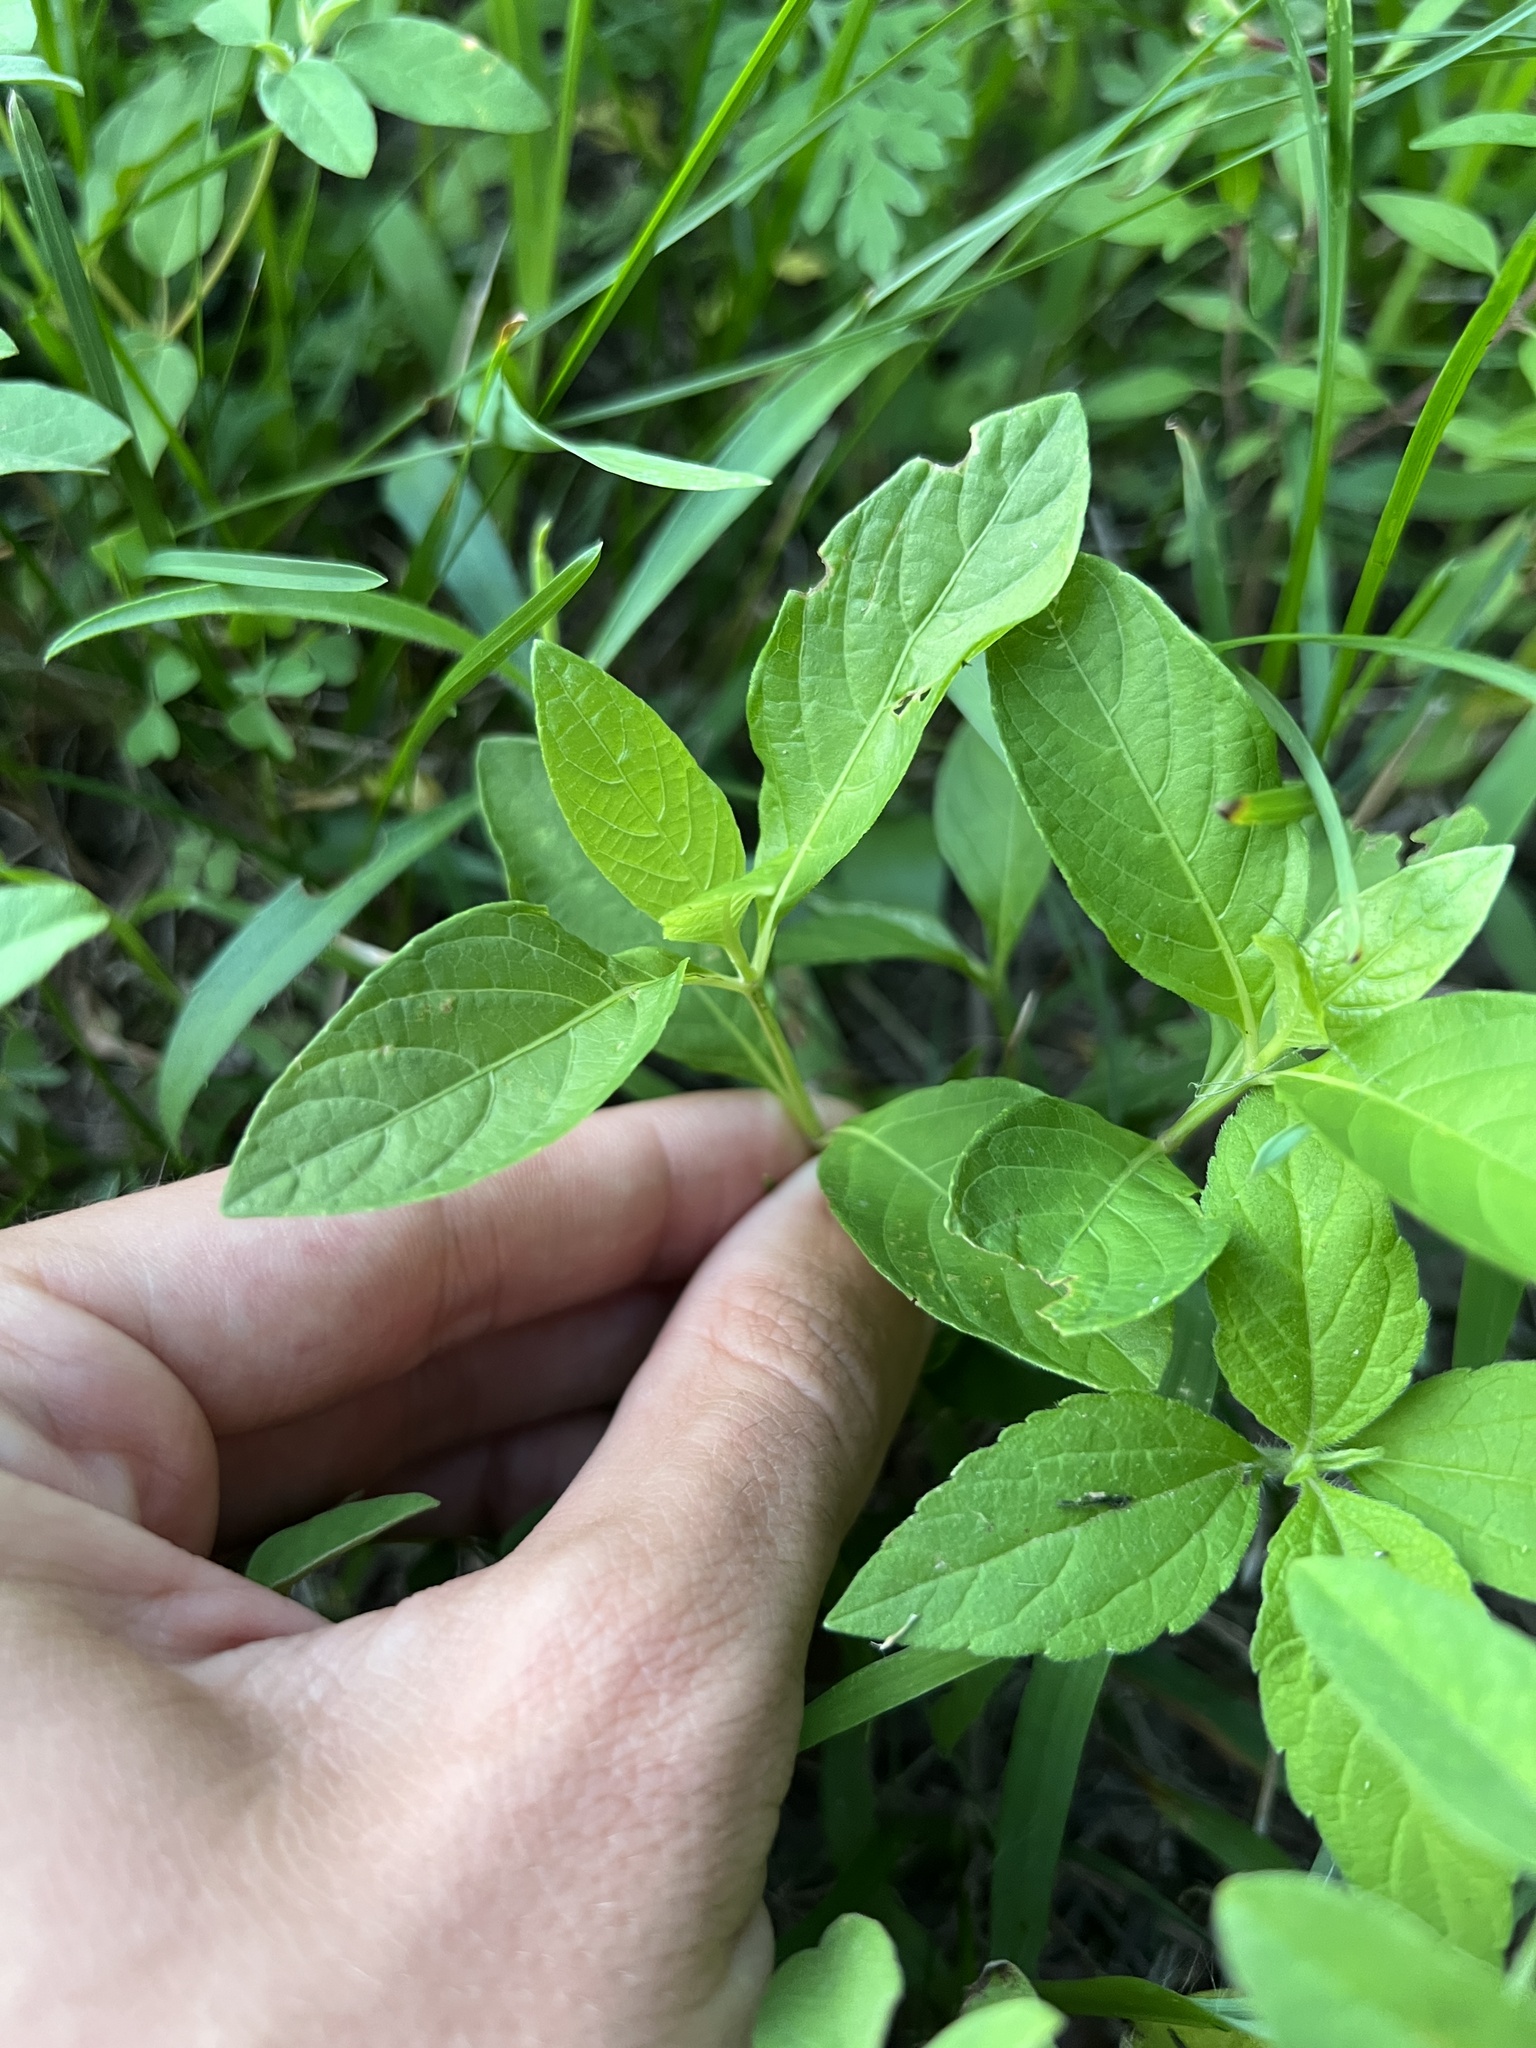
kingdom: Plantae
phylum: Tracheophyta
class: Magnoliopsida
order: Lamiales
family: Acanthaceae
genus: Ruellia
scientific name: Ruellia strepens
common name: Limestone wild petunia
